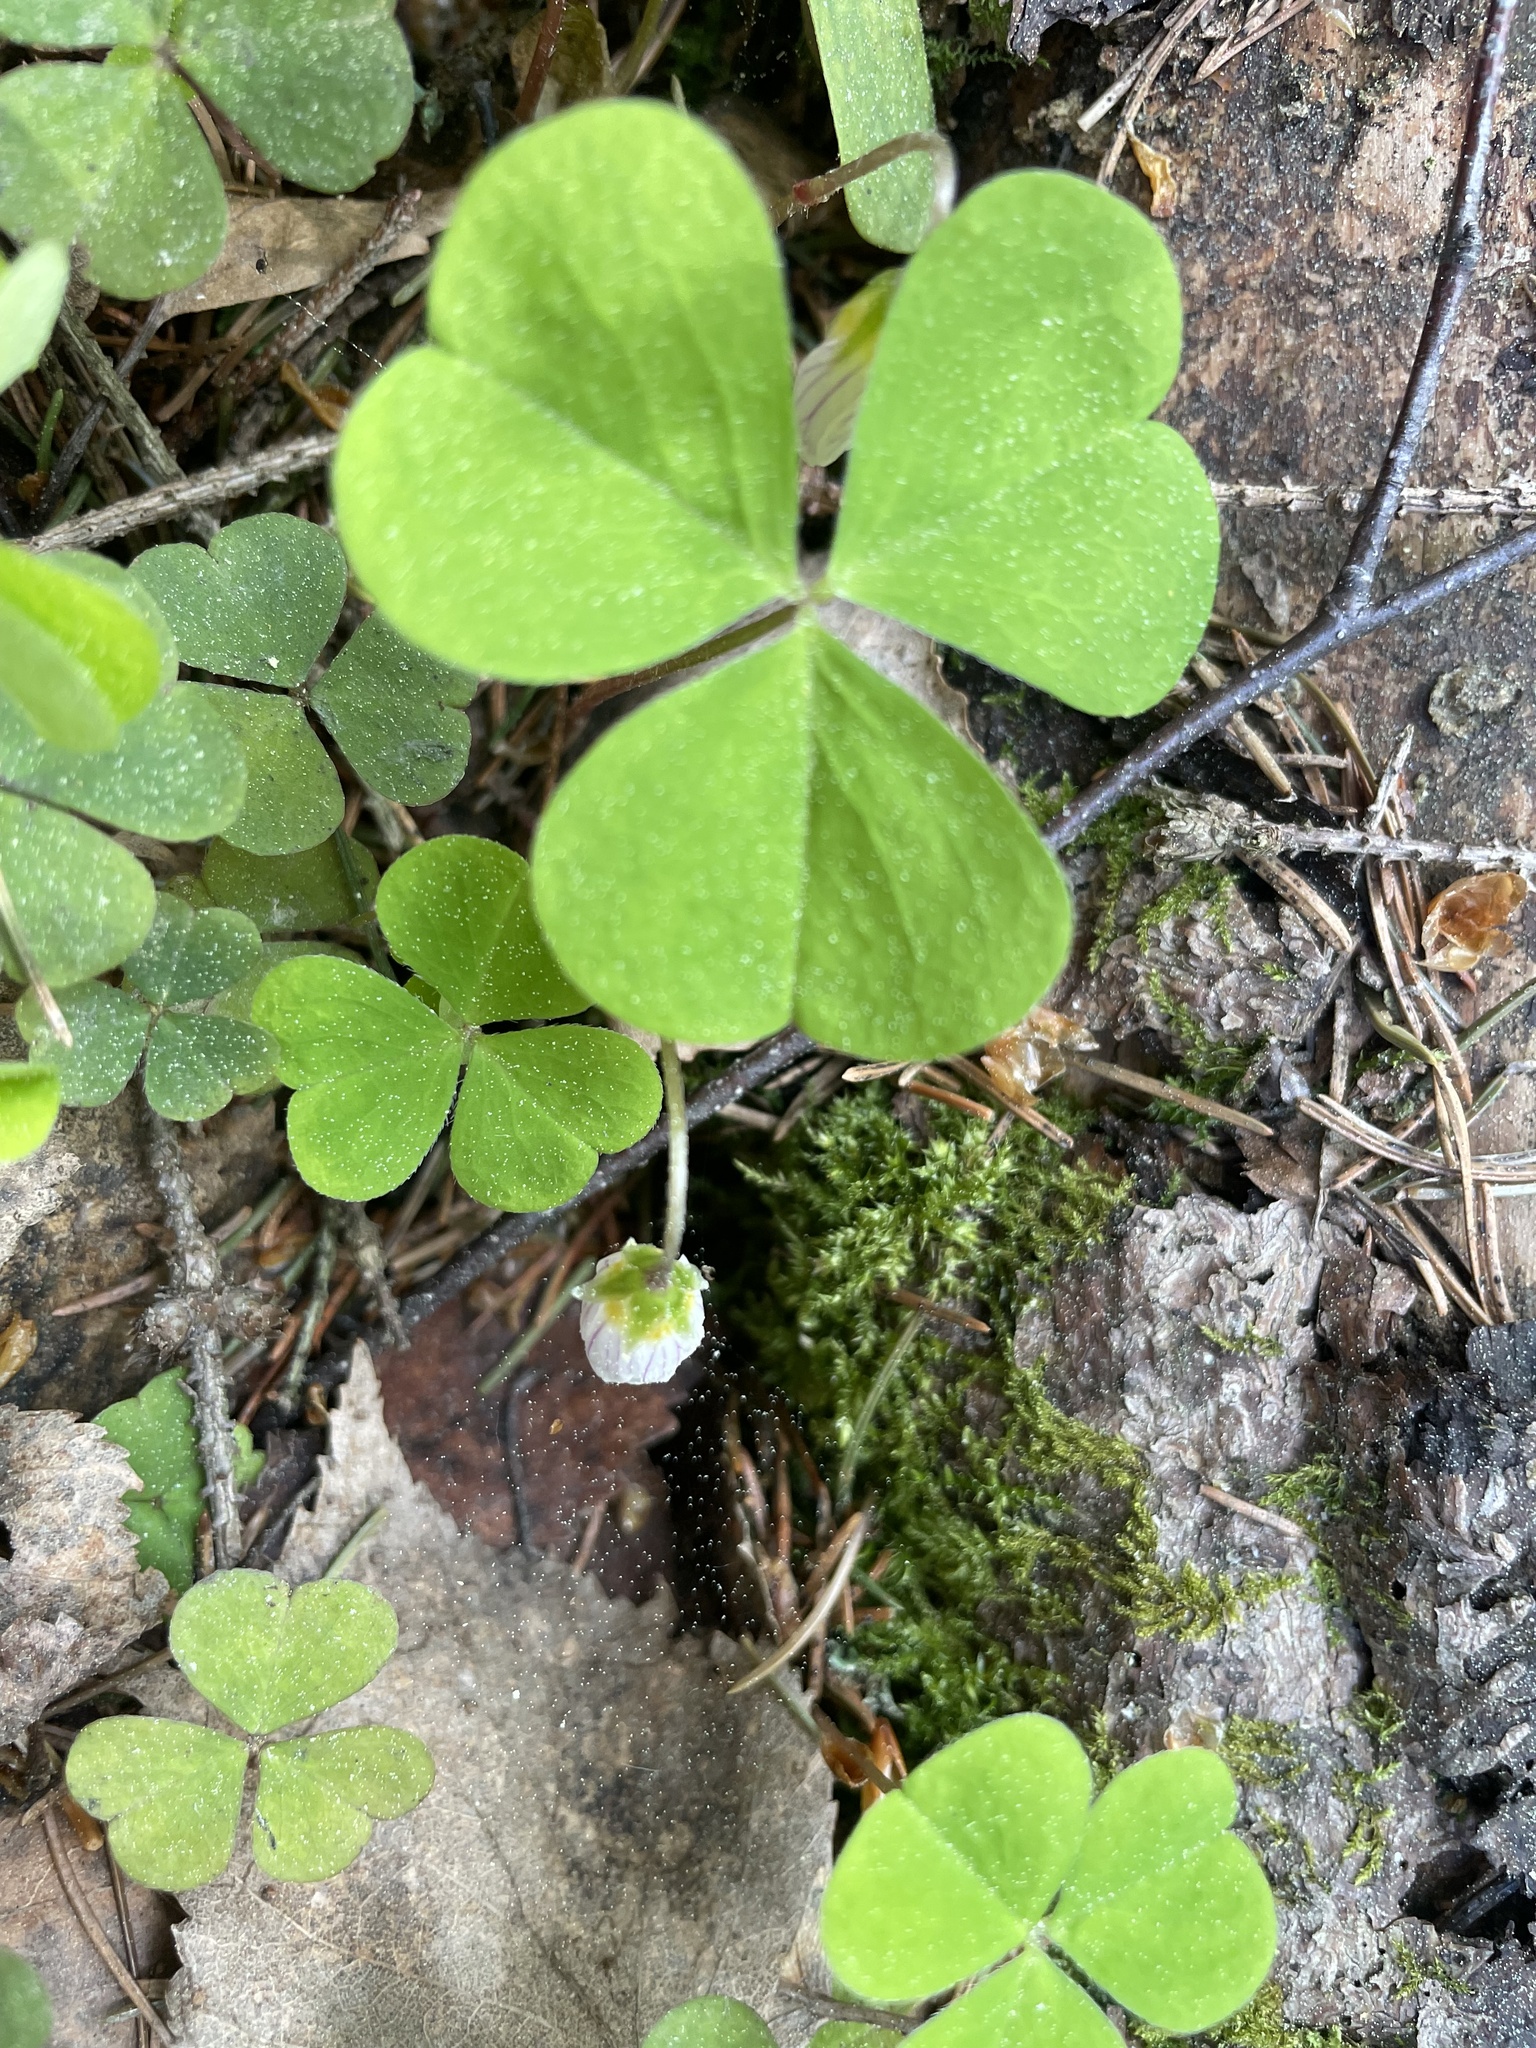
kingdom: Plantae
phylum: Tracheophyta
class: Magnoliopsida
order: Oxalidales
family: Oxalidaceae
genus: Oxalis
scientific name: Oxalis acetosella
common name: Wood-sorrel
